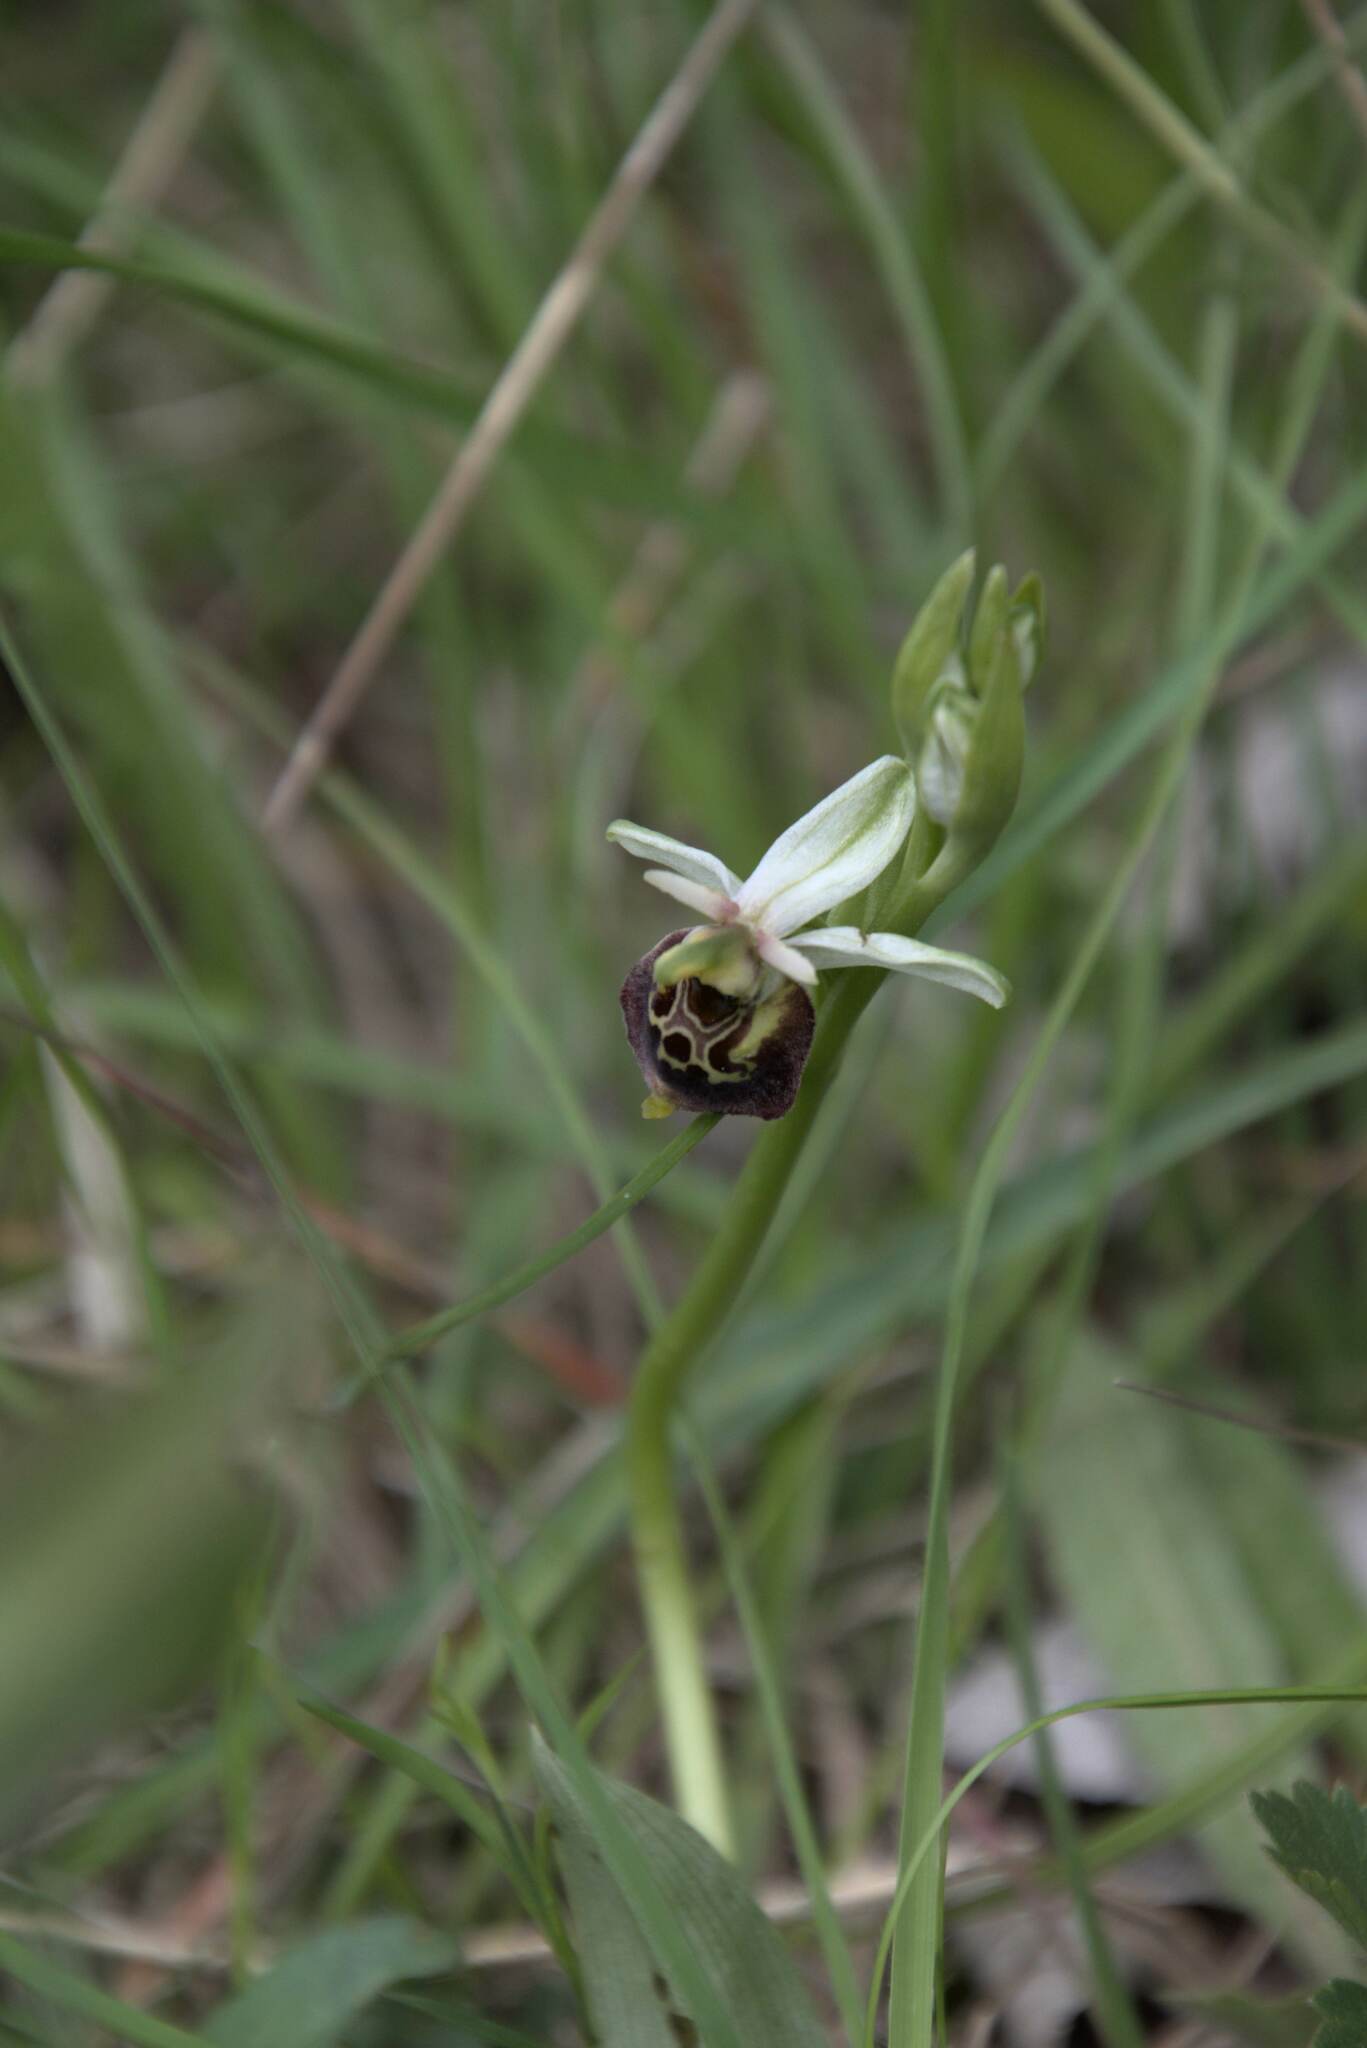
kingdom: Plantae
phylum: Tracheophyta
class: Liliopsida
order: Asparagales
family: Orchidaceae
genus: Ophrys
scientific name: Ophrys holosericea
